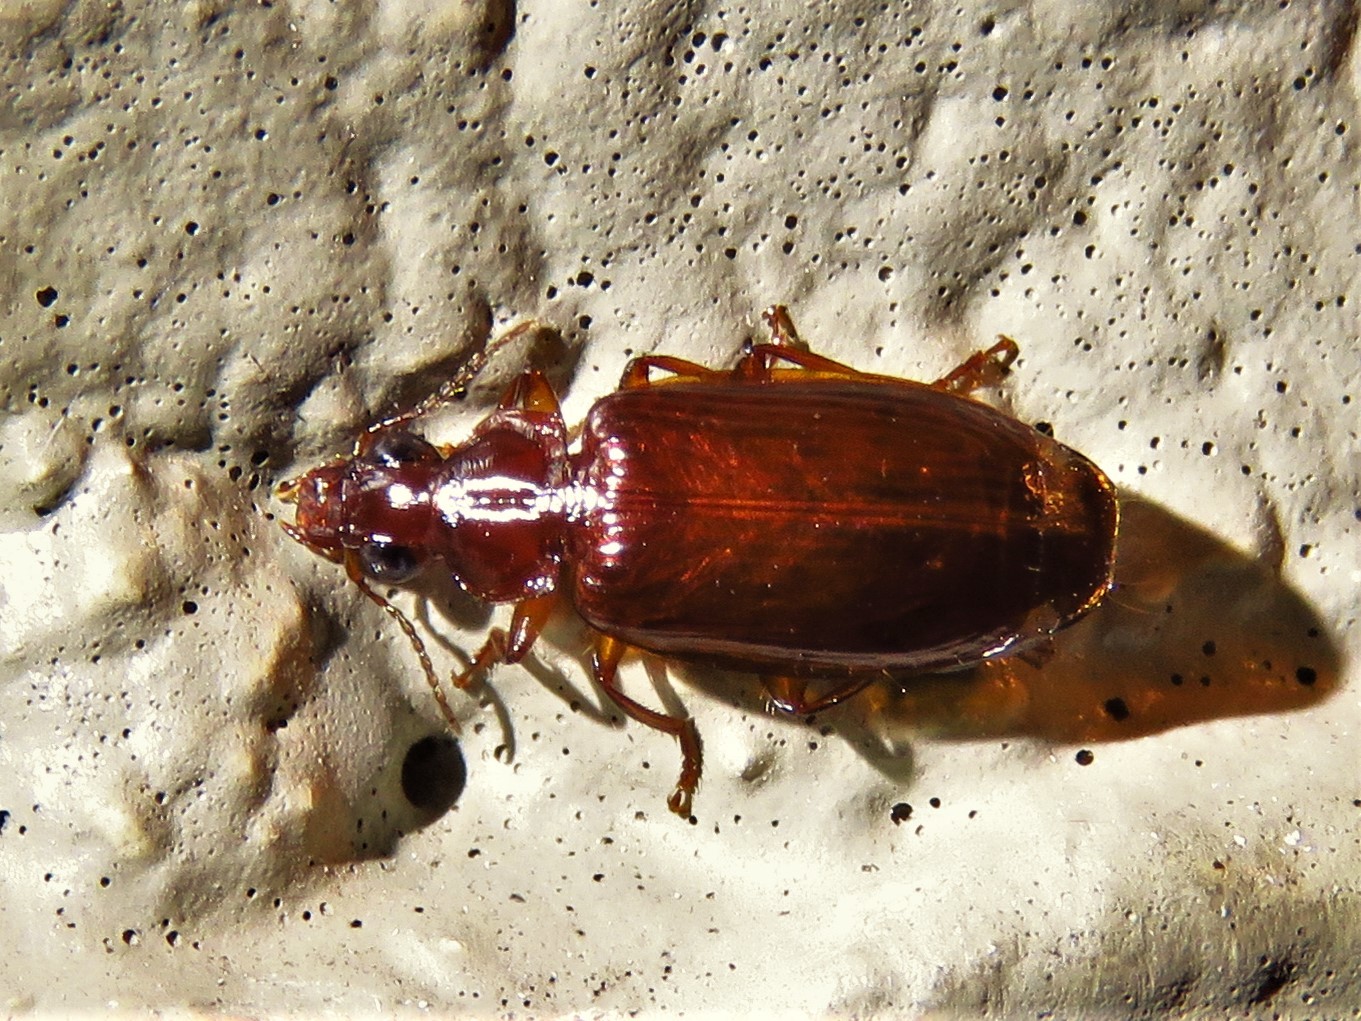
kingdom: Animalia
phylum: Arthropoda
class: Insecta
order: Coleoptera
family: Carabidae
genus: Plochionus
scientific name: Plochionus timidus
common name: Timid harp ground beetle
